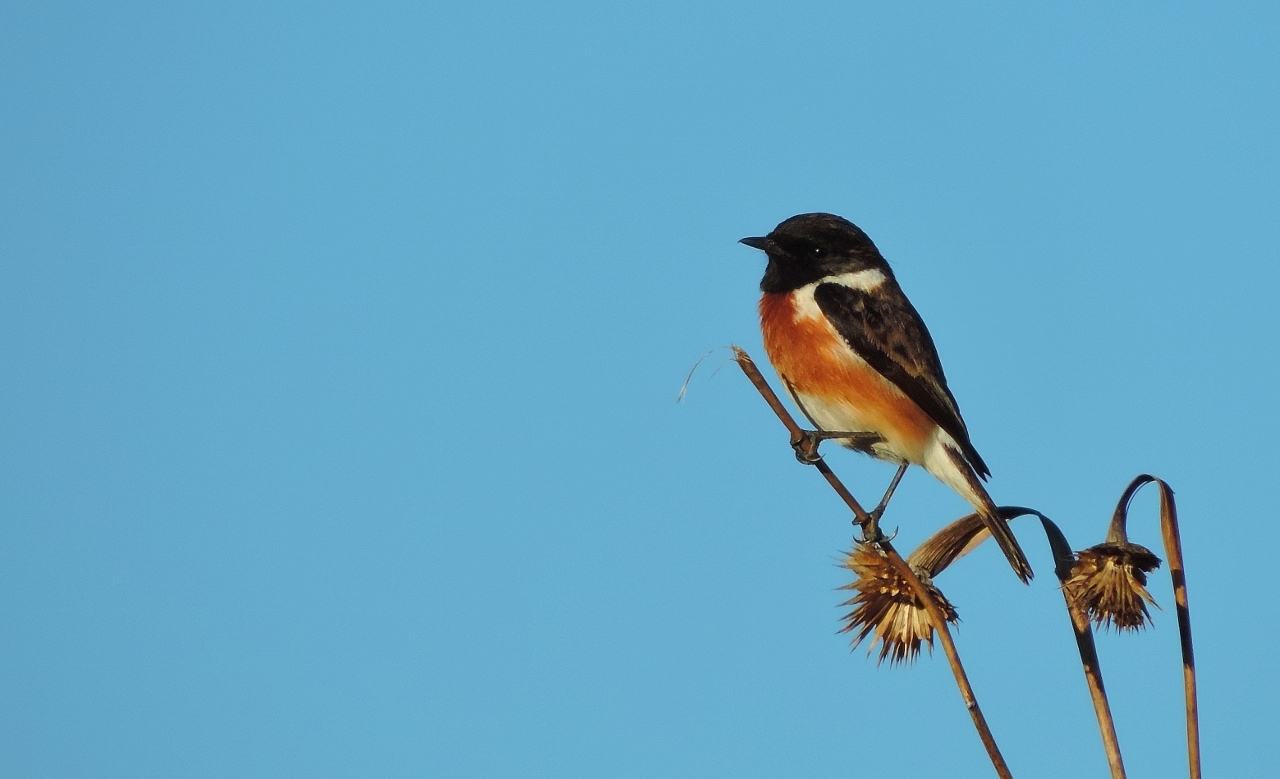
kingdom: Animalia
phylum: Chordata
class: Aves
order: Passeriformes
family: Muscicapidae
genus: Saxicola
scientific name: Saxicola torquatus
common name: African stonechat
